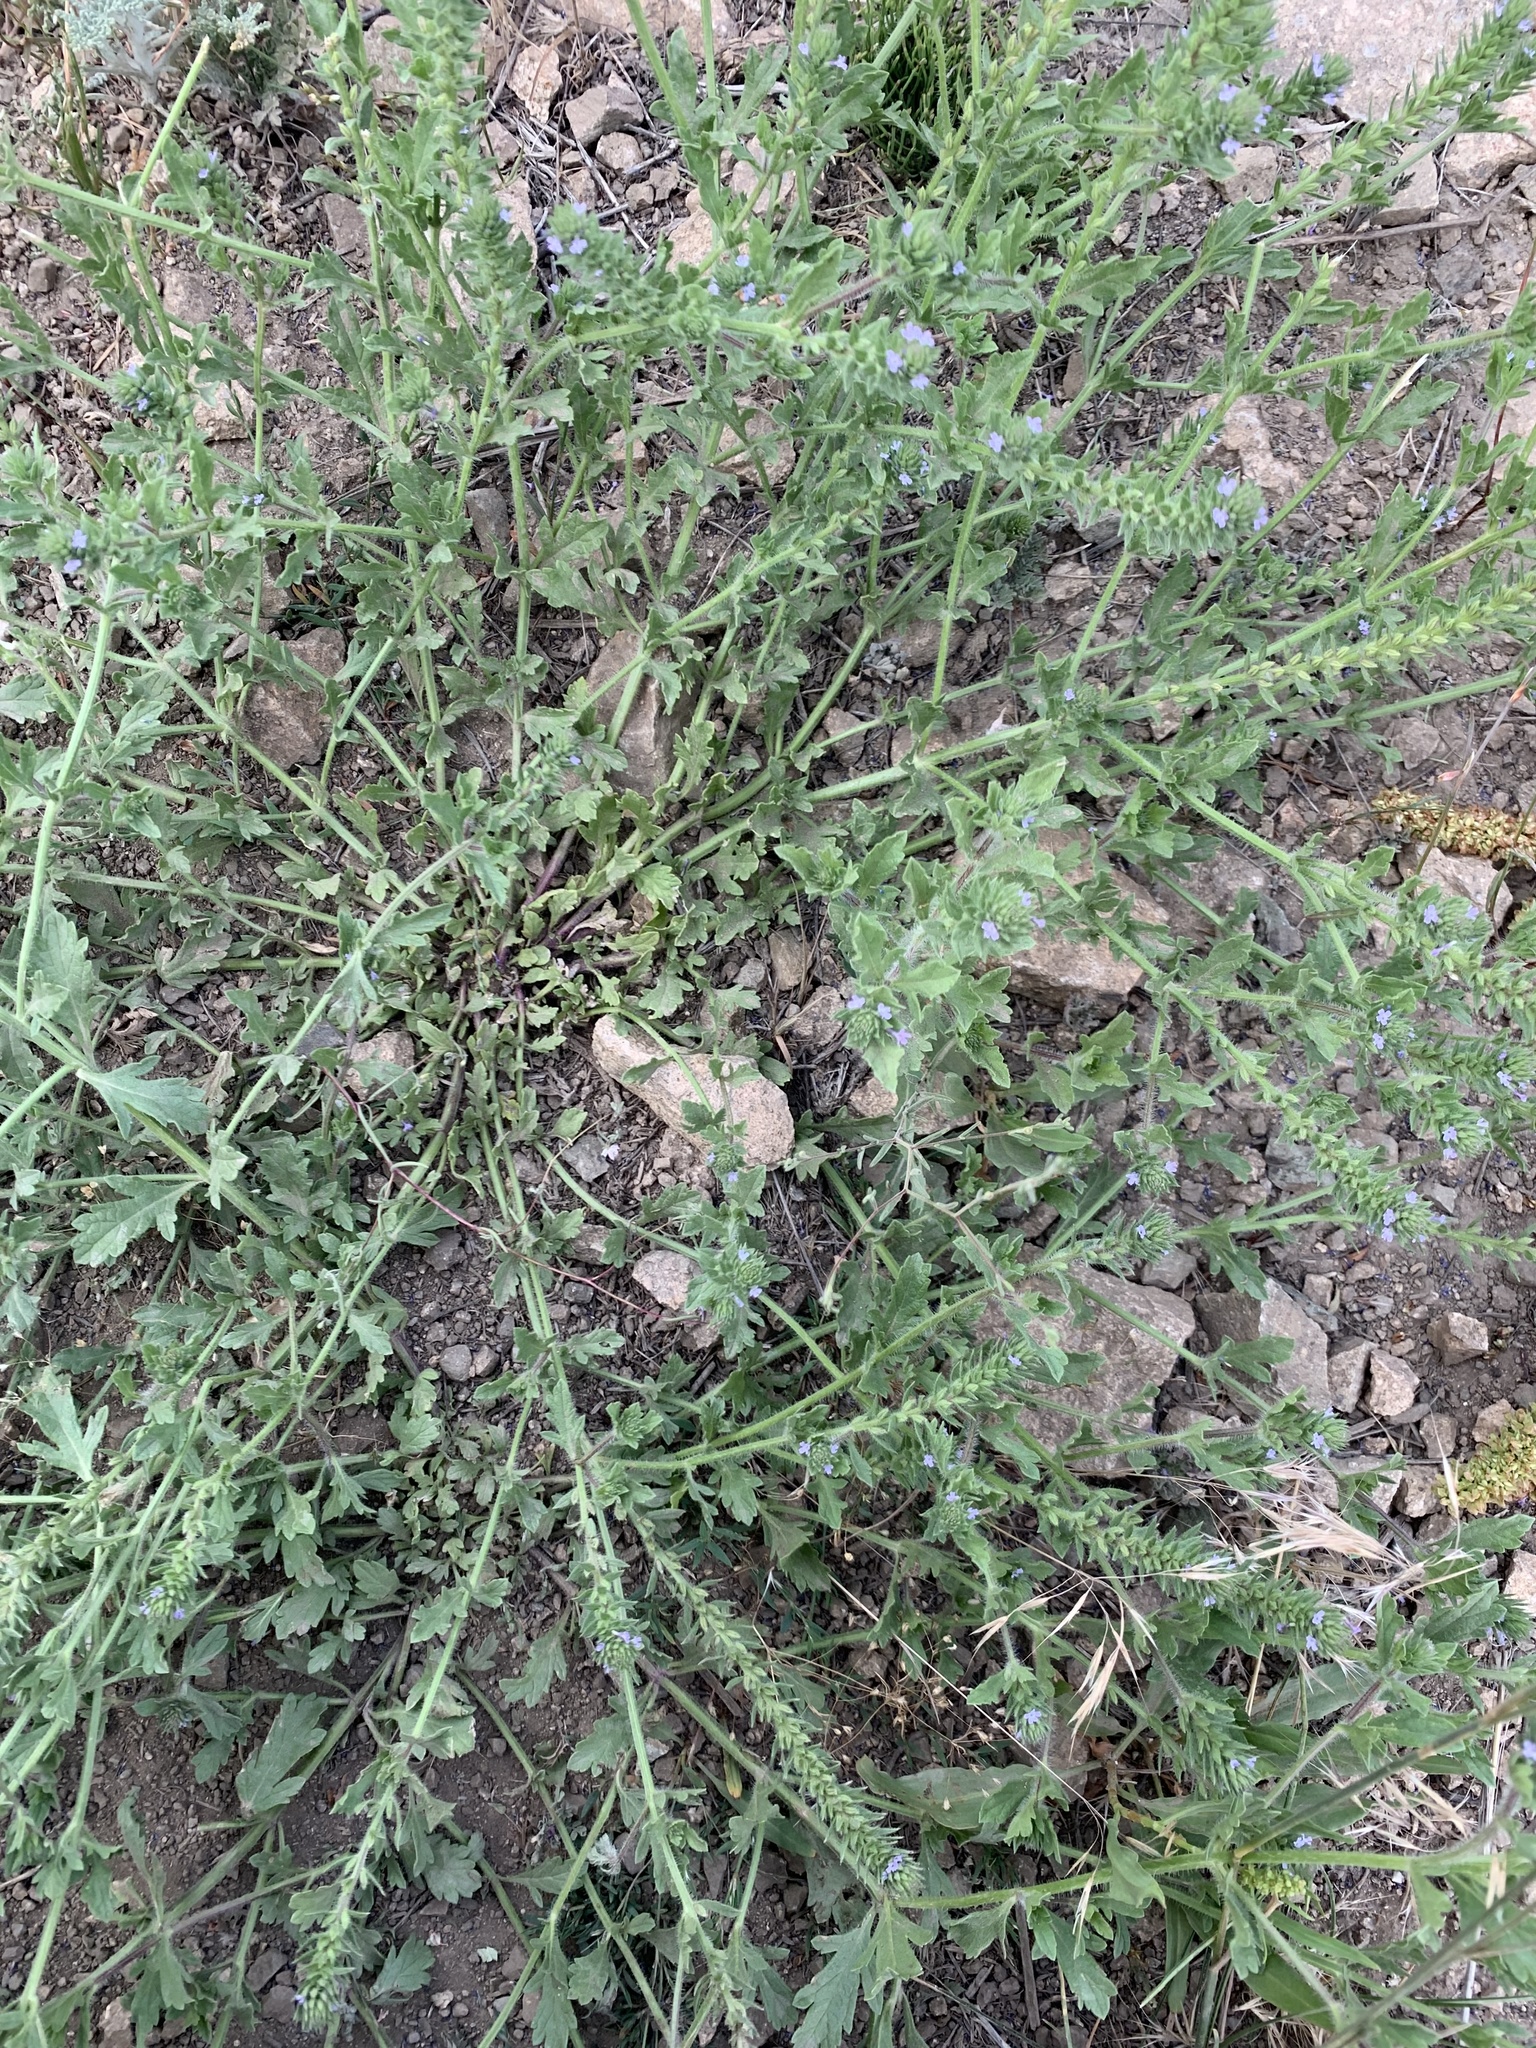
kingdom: Plantae
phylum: Tracheophyta
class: Magnoliopsida
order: Lamiales
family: Verbenaceae
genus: Verbena
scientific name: Verbena bracteata
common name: Bracted vervain
